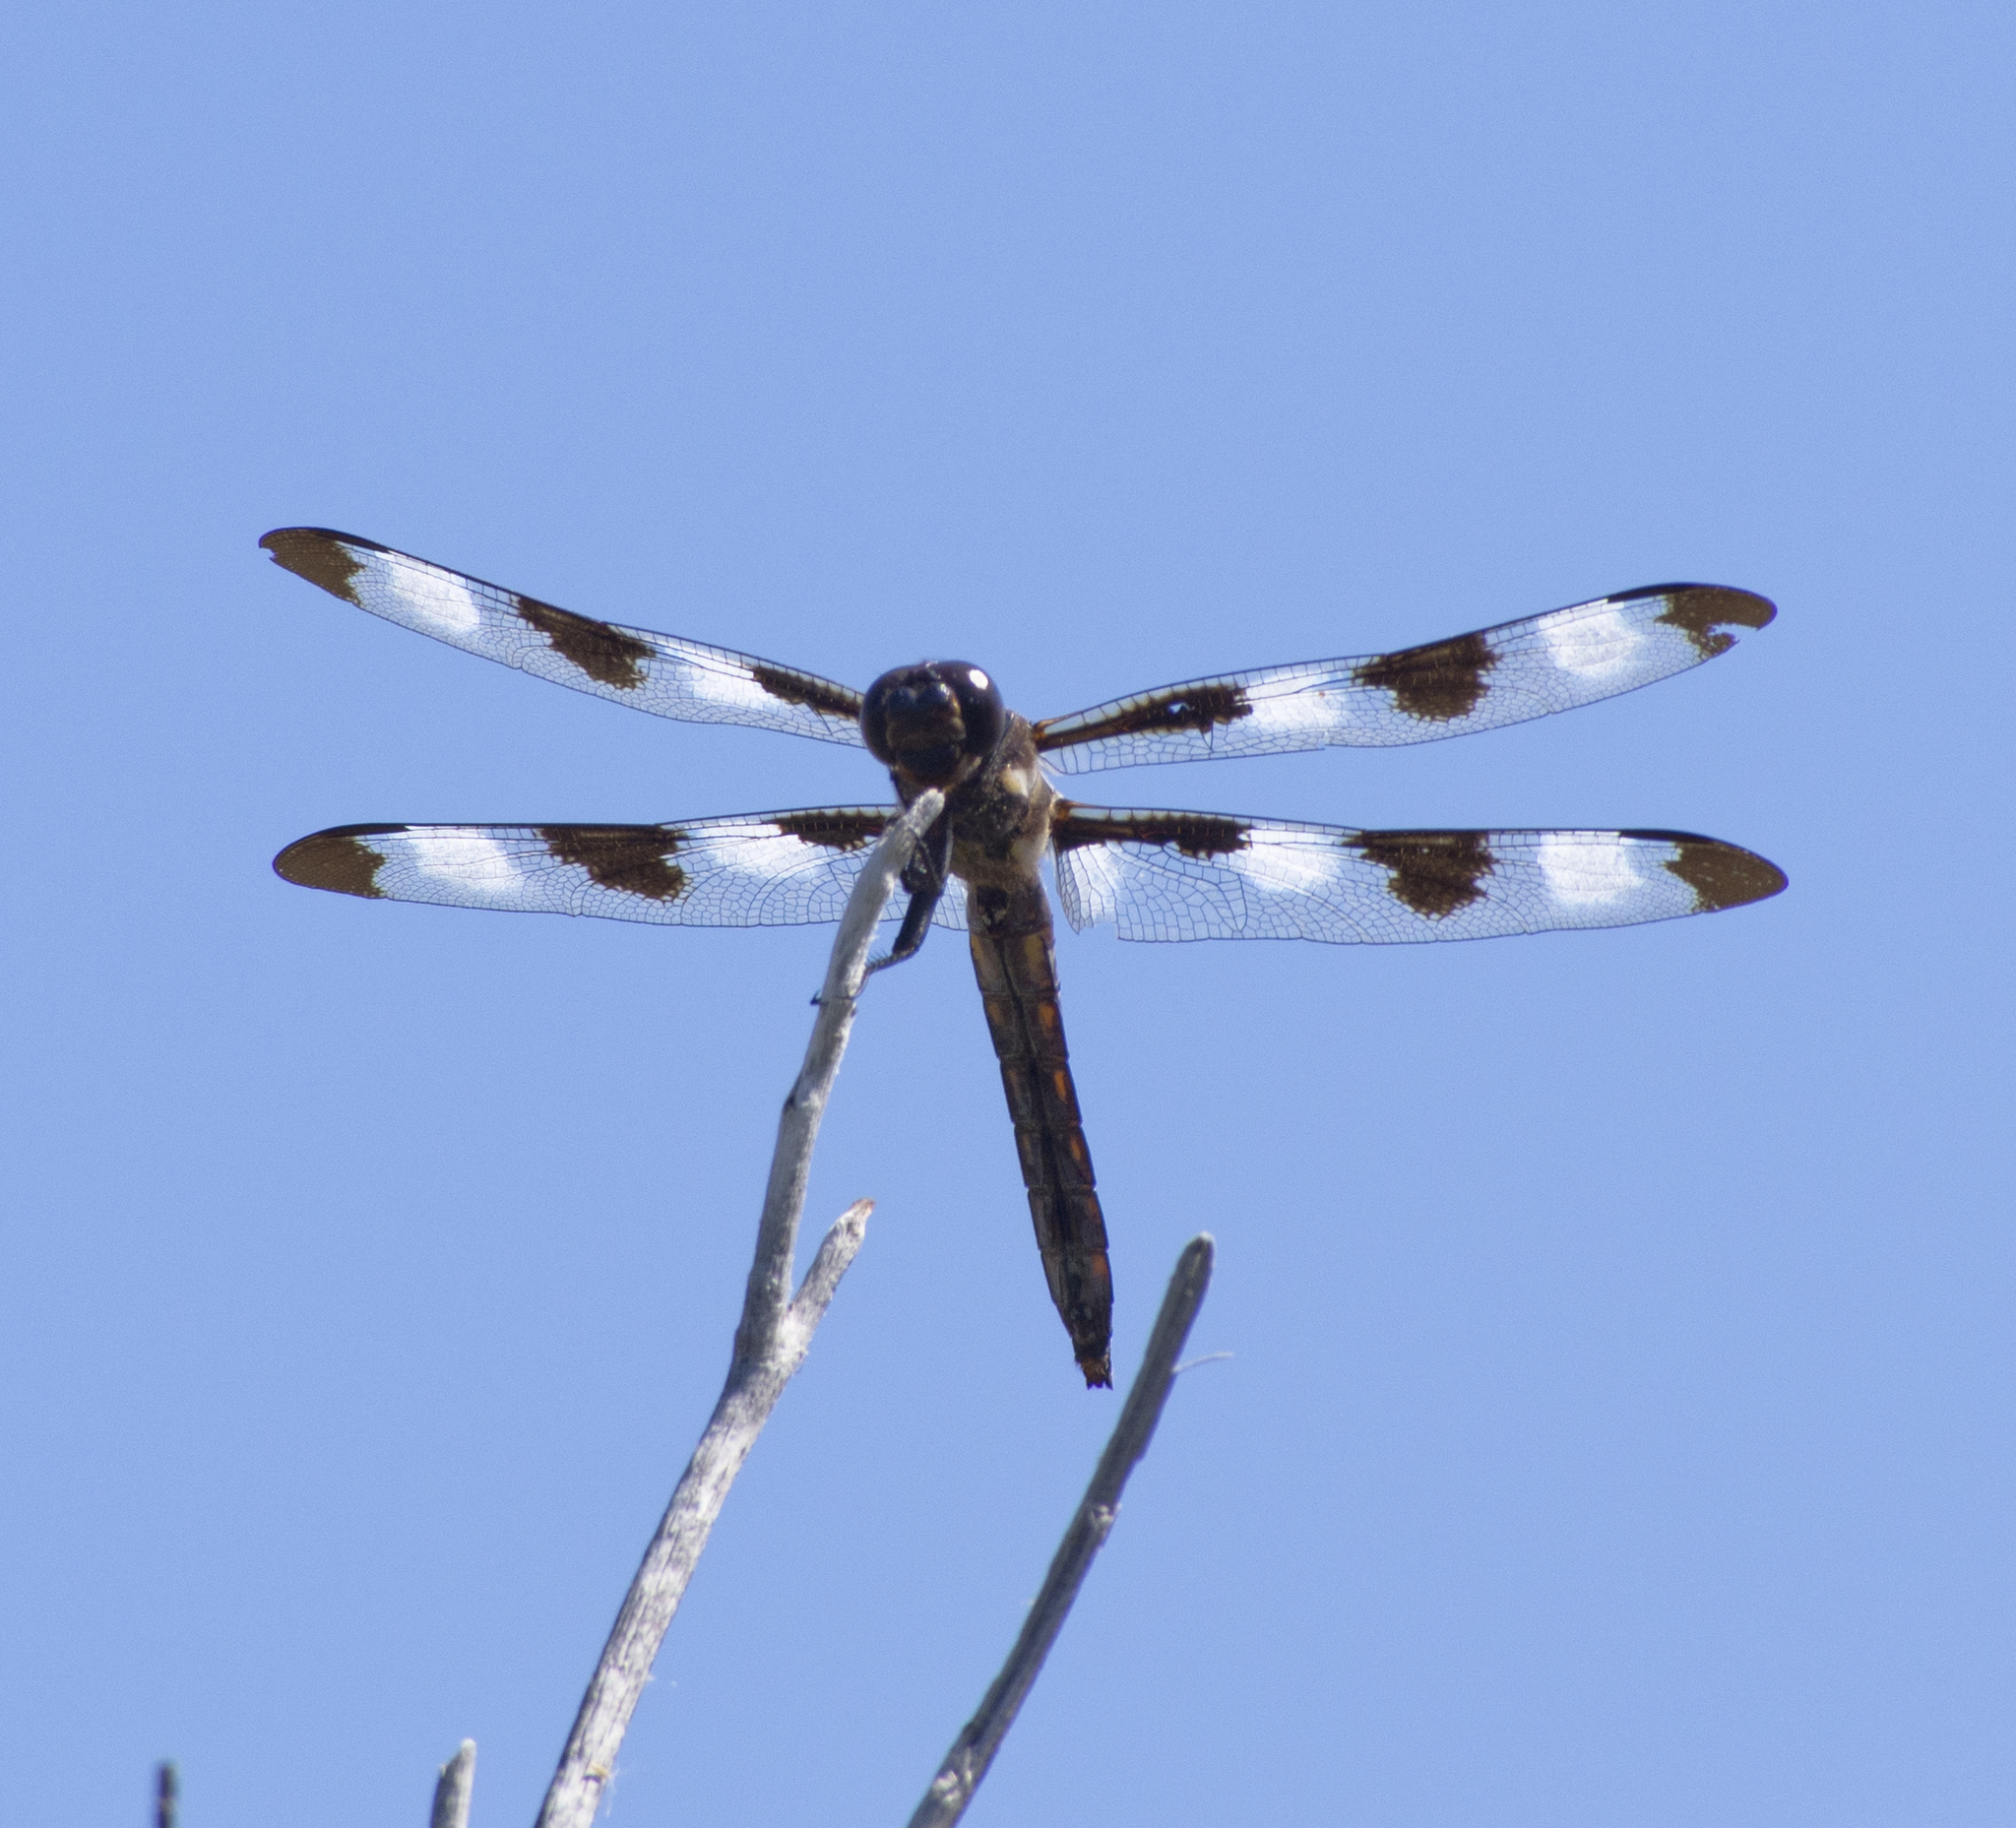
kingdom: Animalia
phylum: Arthropoda
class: Insecta
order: Odonata
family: Libellulidae
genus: Libellula
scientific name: Libellula pulchella
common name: Twelve-spotted skimmer
